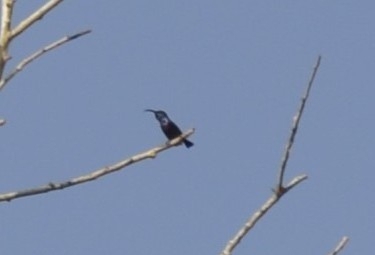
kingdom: Animalia
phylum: Chordata
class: Aves
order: Passeriformes
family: Nectariniidae
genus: Cinnyris
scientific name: Cinnyris lotenius
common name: Loten's sunbird
